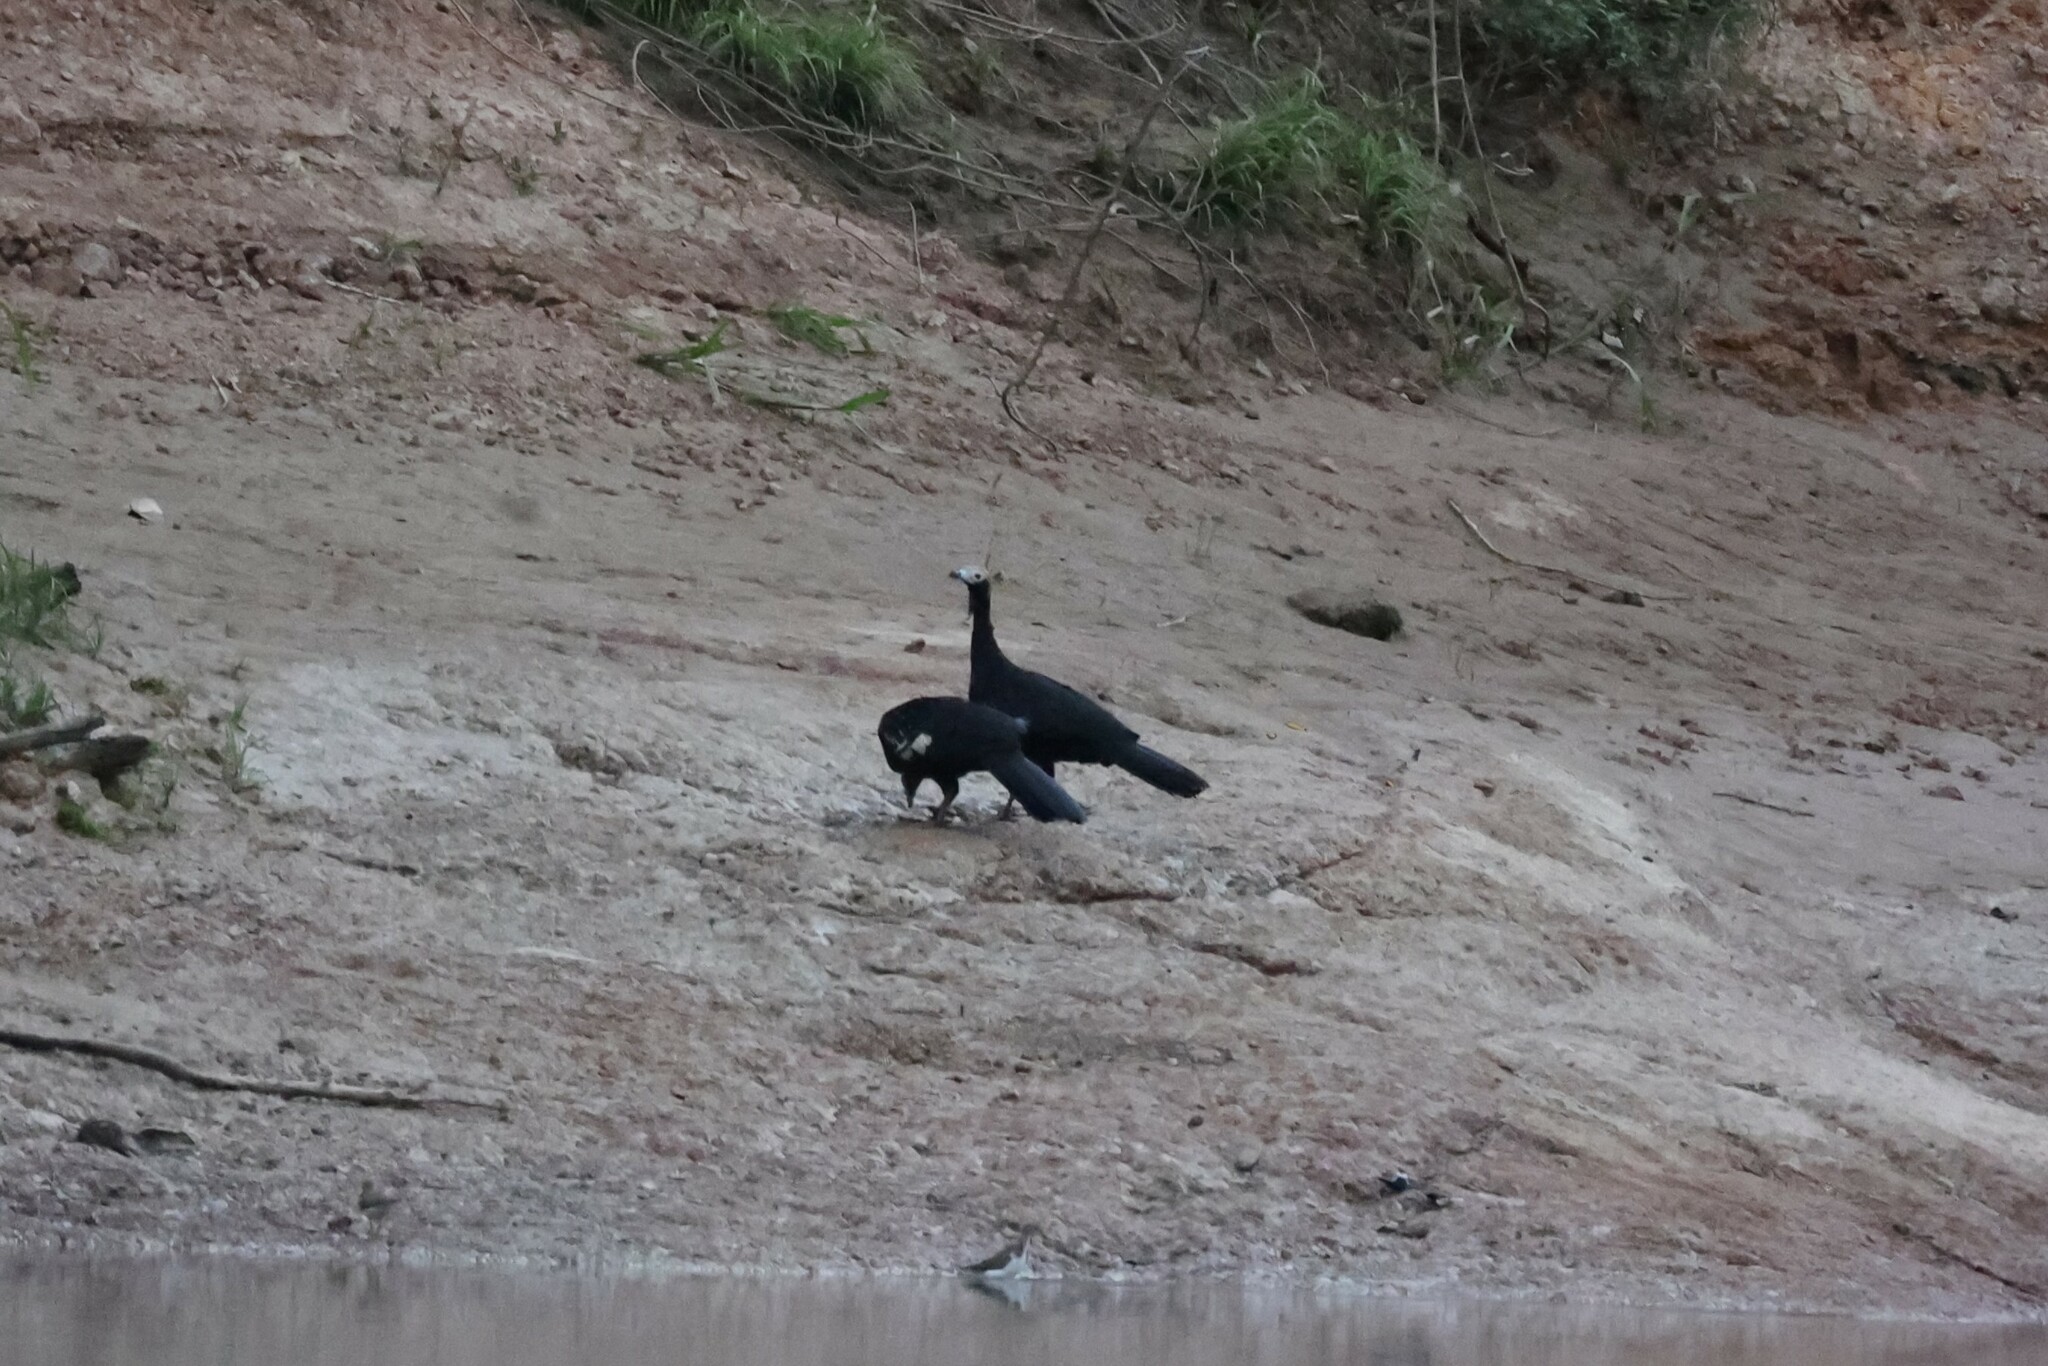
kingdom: Animalia
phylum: Chordata
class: Aves
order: Galliformes
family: Cracidae
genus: Pipile
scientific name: Pipile cumanensis
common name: Blue-throated piping-guan
